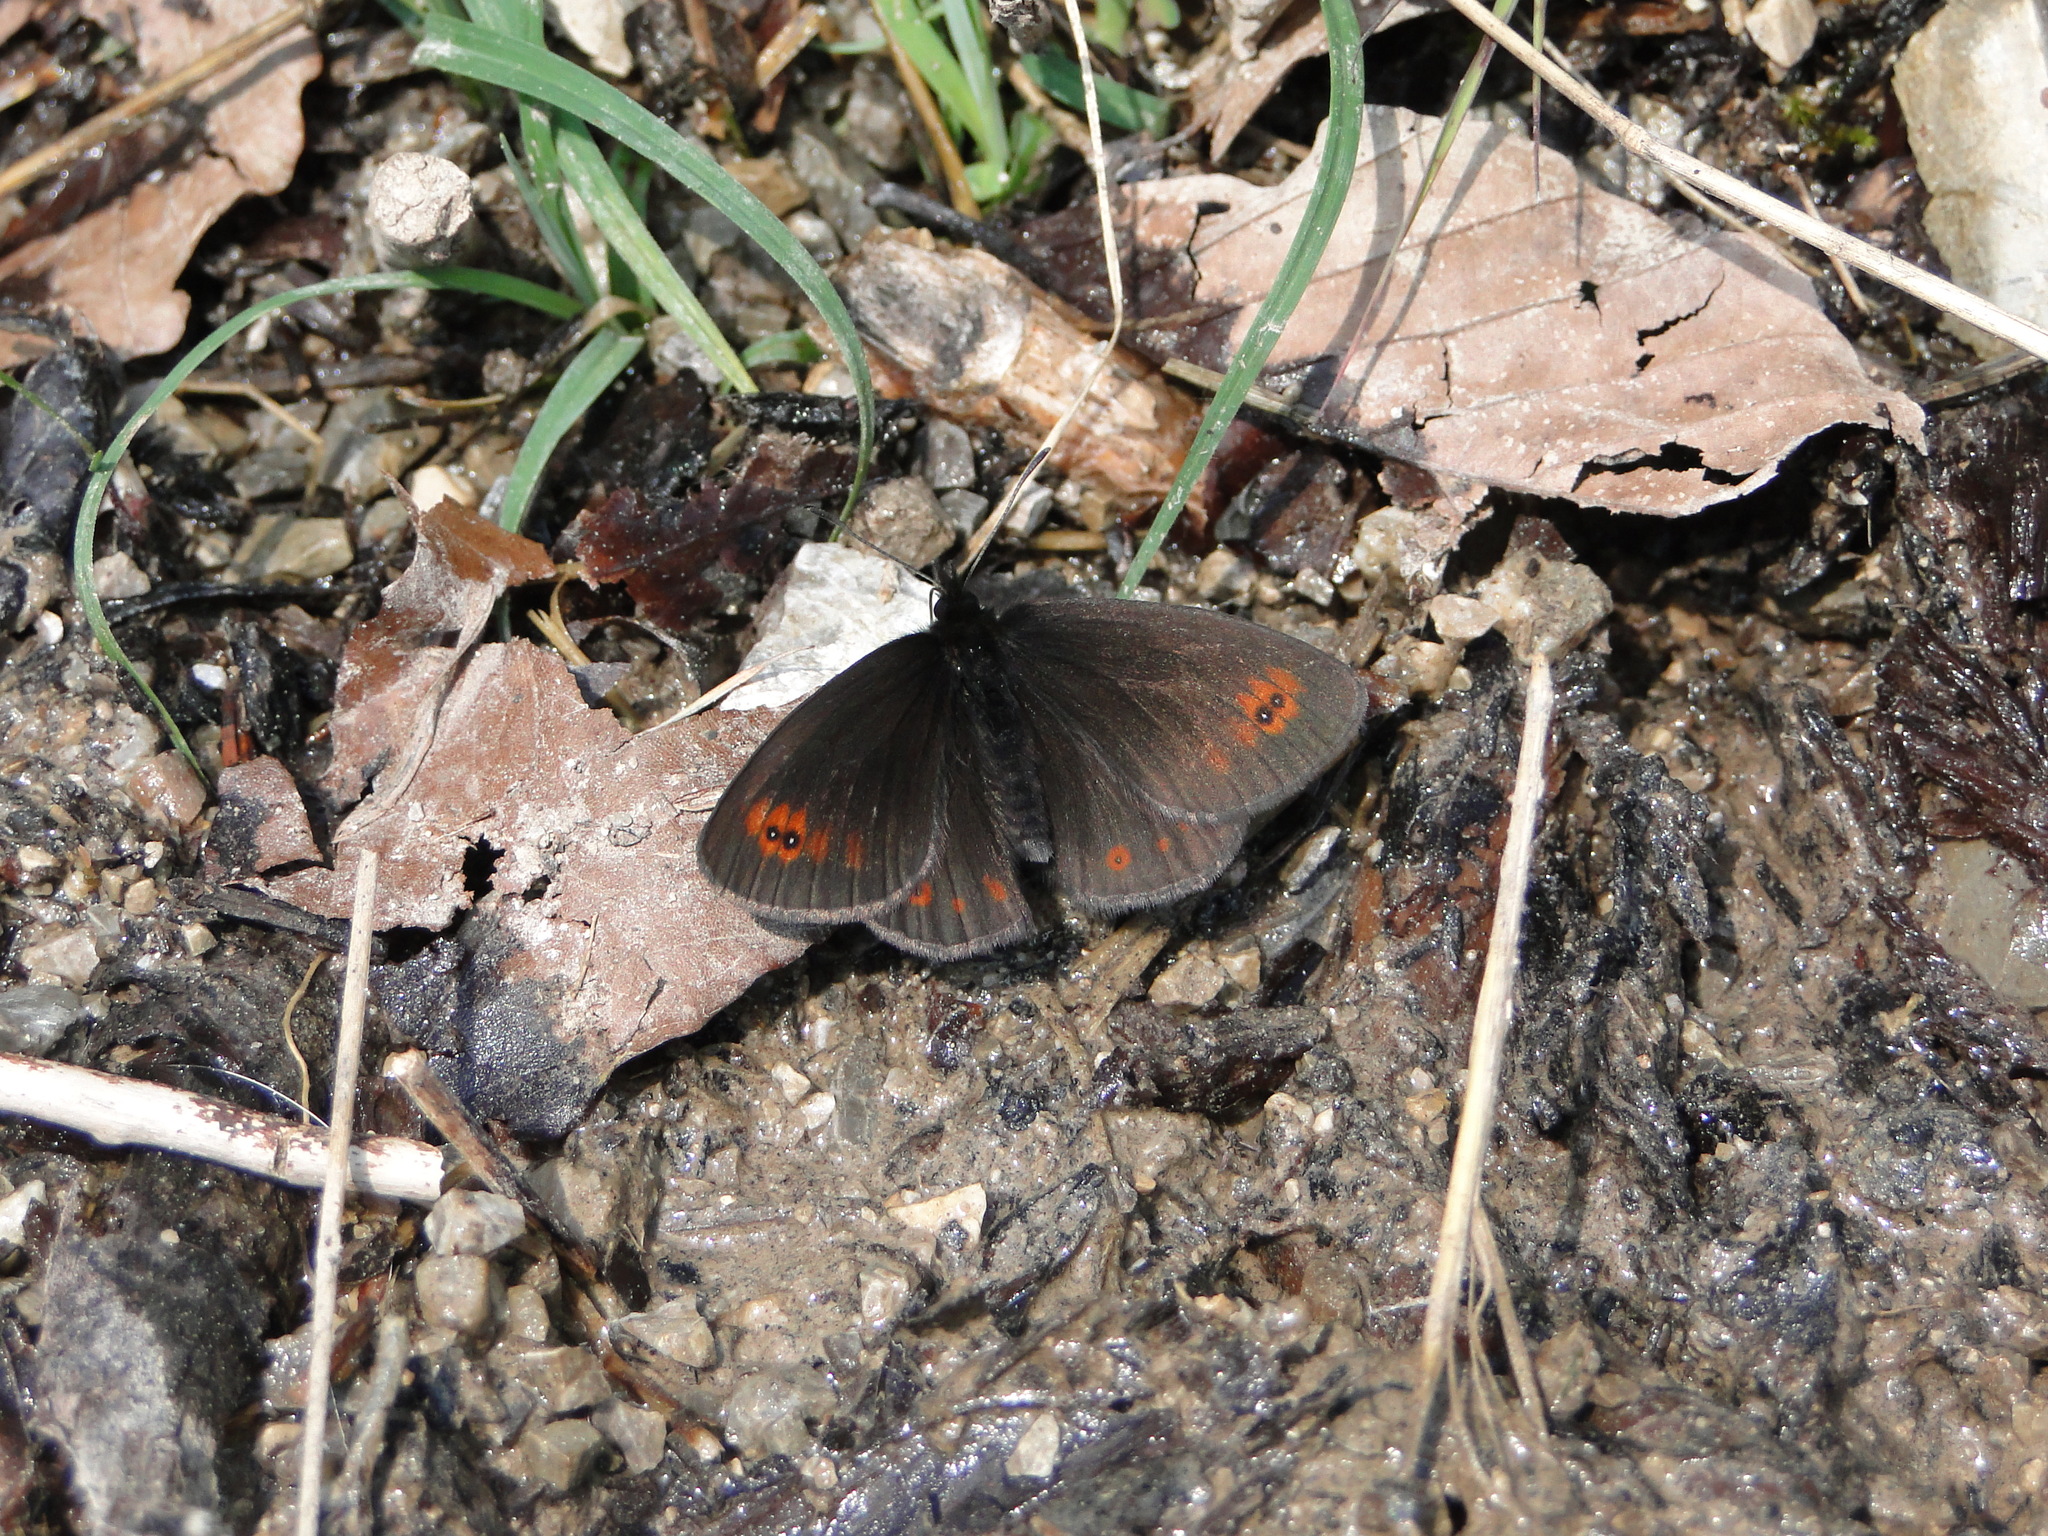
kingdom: Animalia
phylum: Arthropoda
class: Insecta
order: Lepidoptera
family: Nymphalidae
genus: Erebia
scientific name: Erebia oeme
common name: Bright-eyed ringlet
